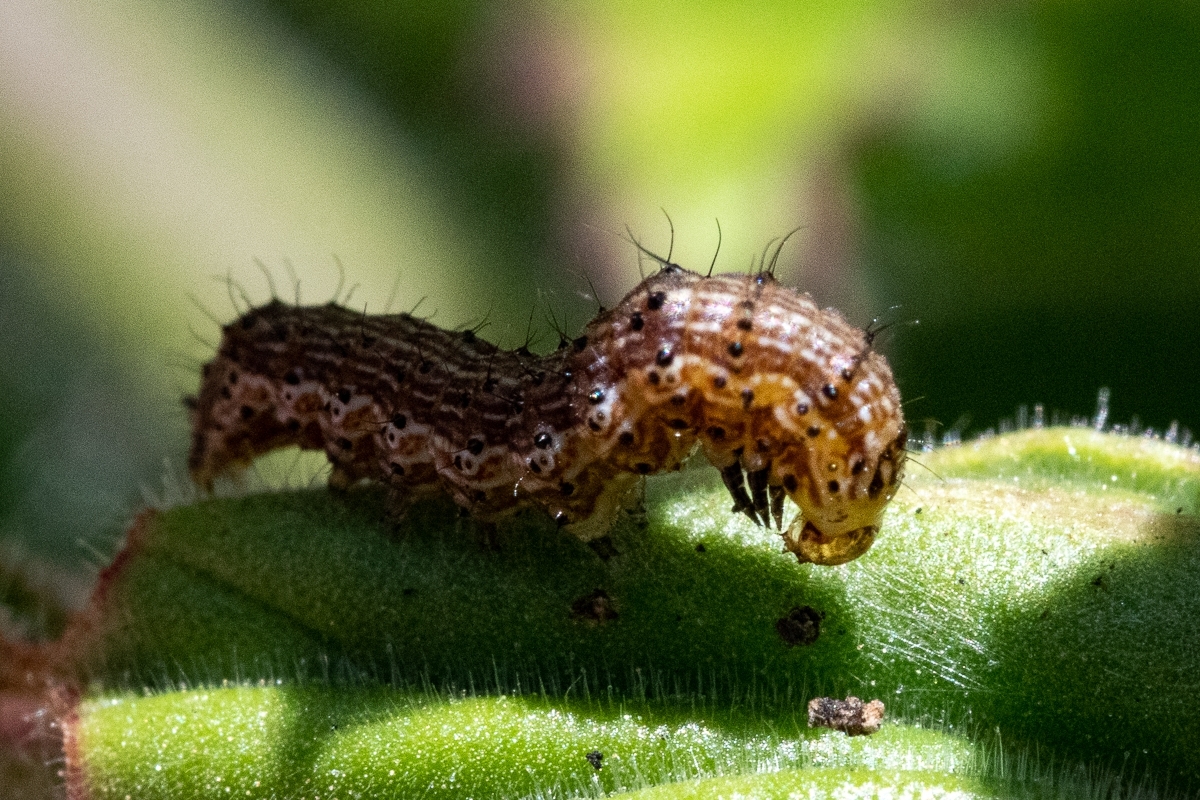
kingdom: Animalia
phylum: Arthropoda
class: Insecta
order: Lepidoptera
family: Noctuidae
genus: Helicoverpa
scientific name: Helicoverpa armigera
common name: Cotton bollworm
